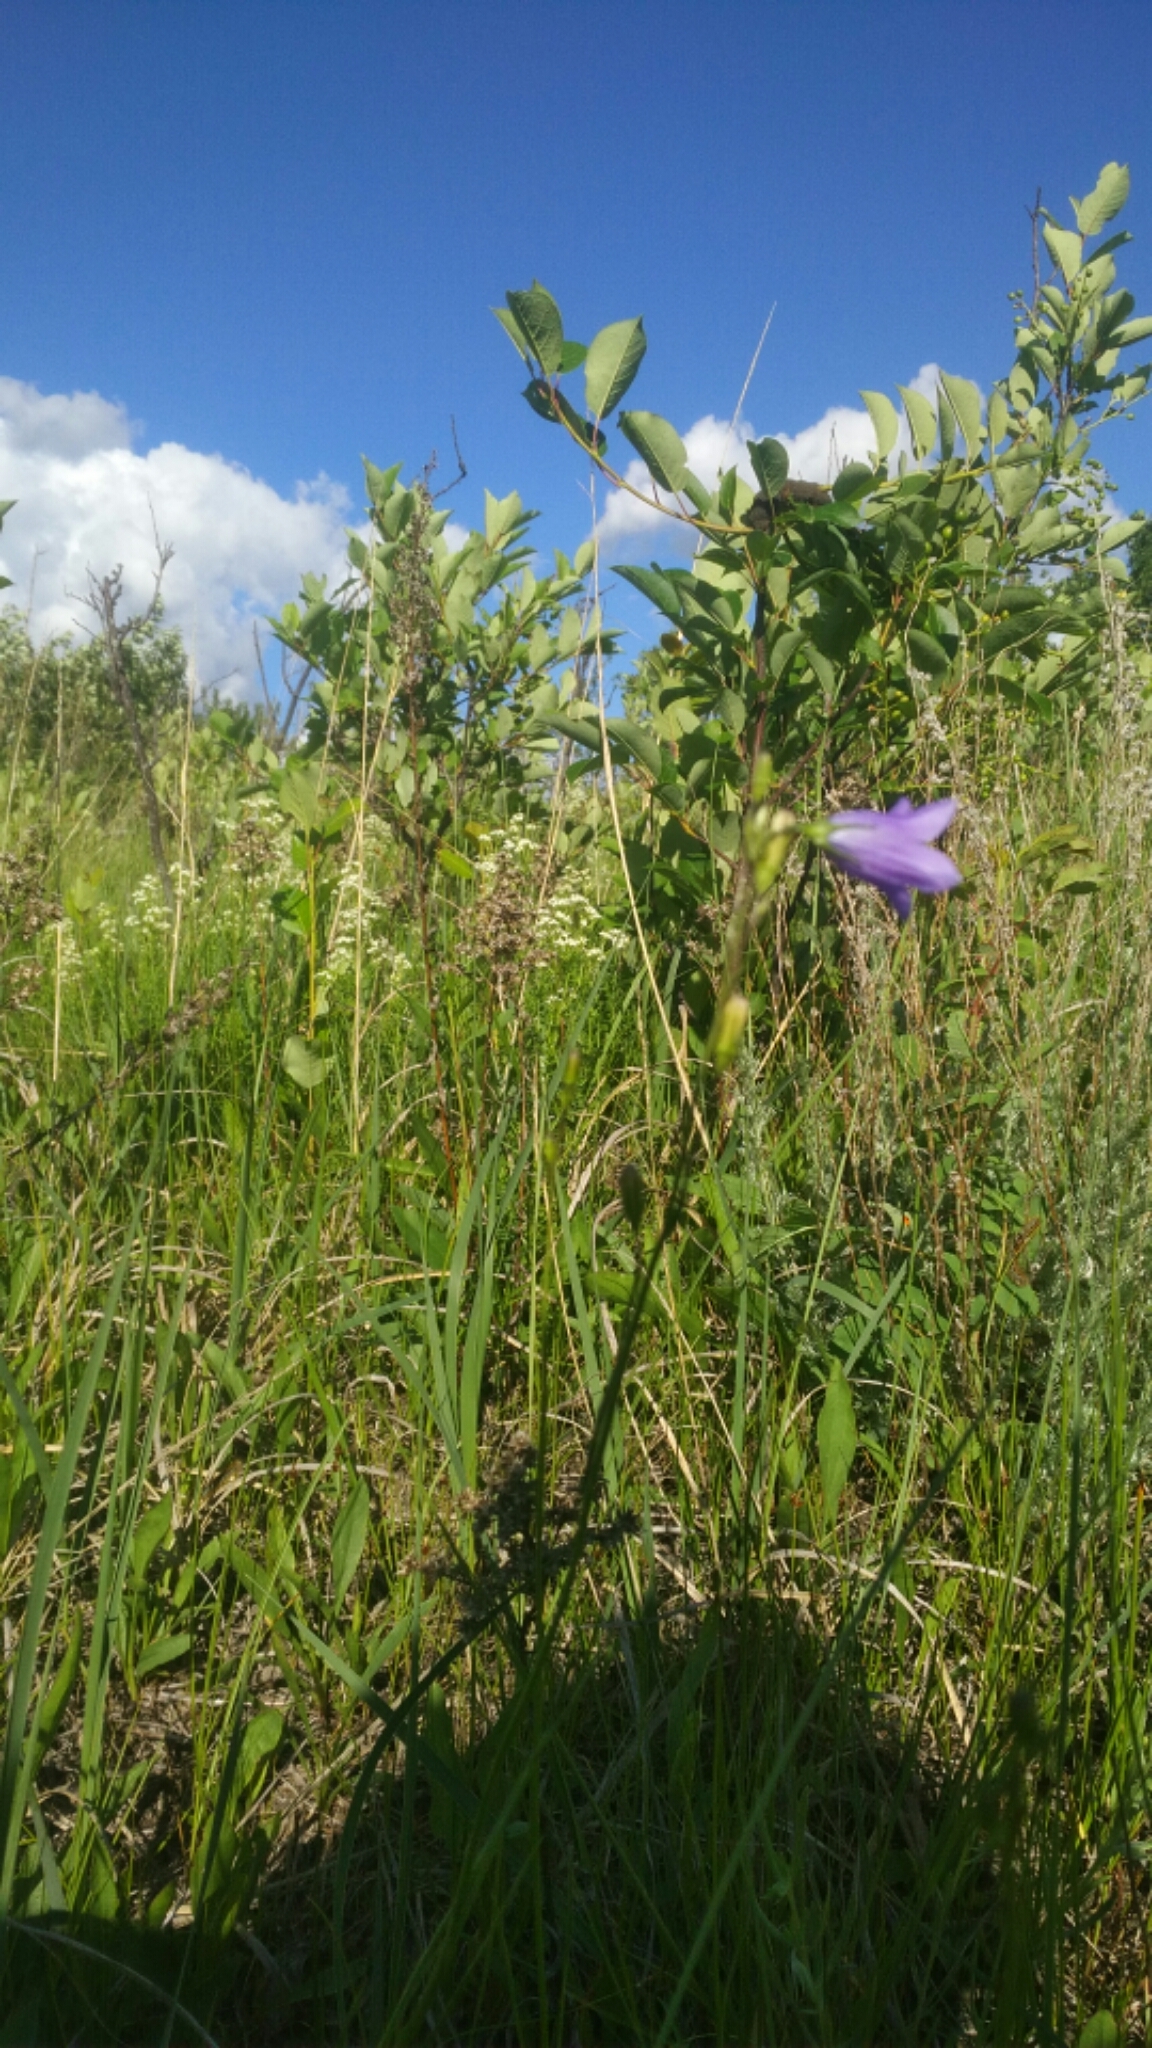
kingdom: Plantae
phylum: Tracheophyta
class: Magnoliopsida
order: Asterales
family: Campanulaceae
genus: Campanula
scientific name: Campanula alaskana
